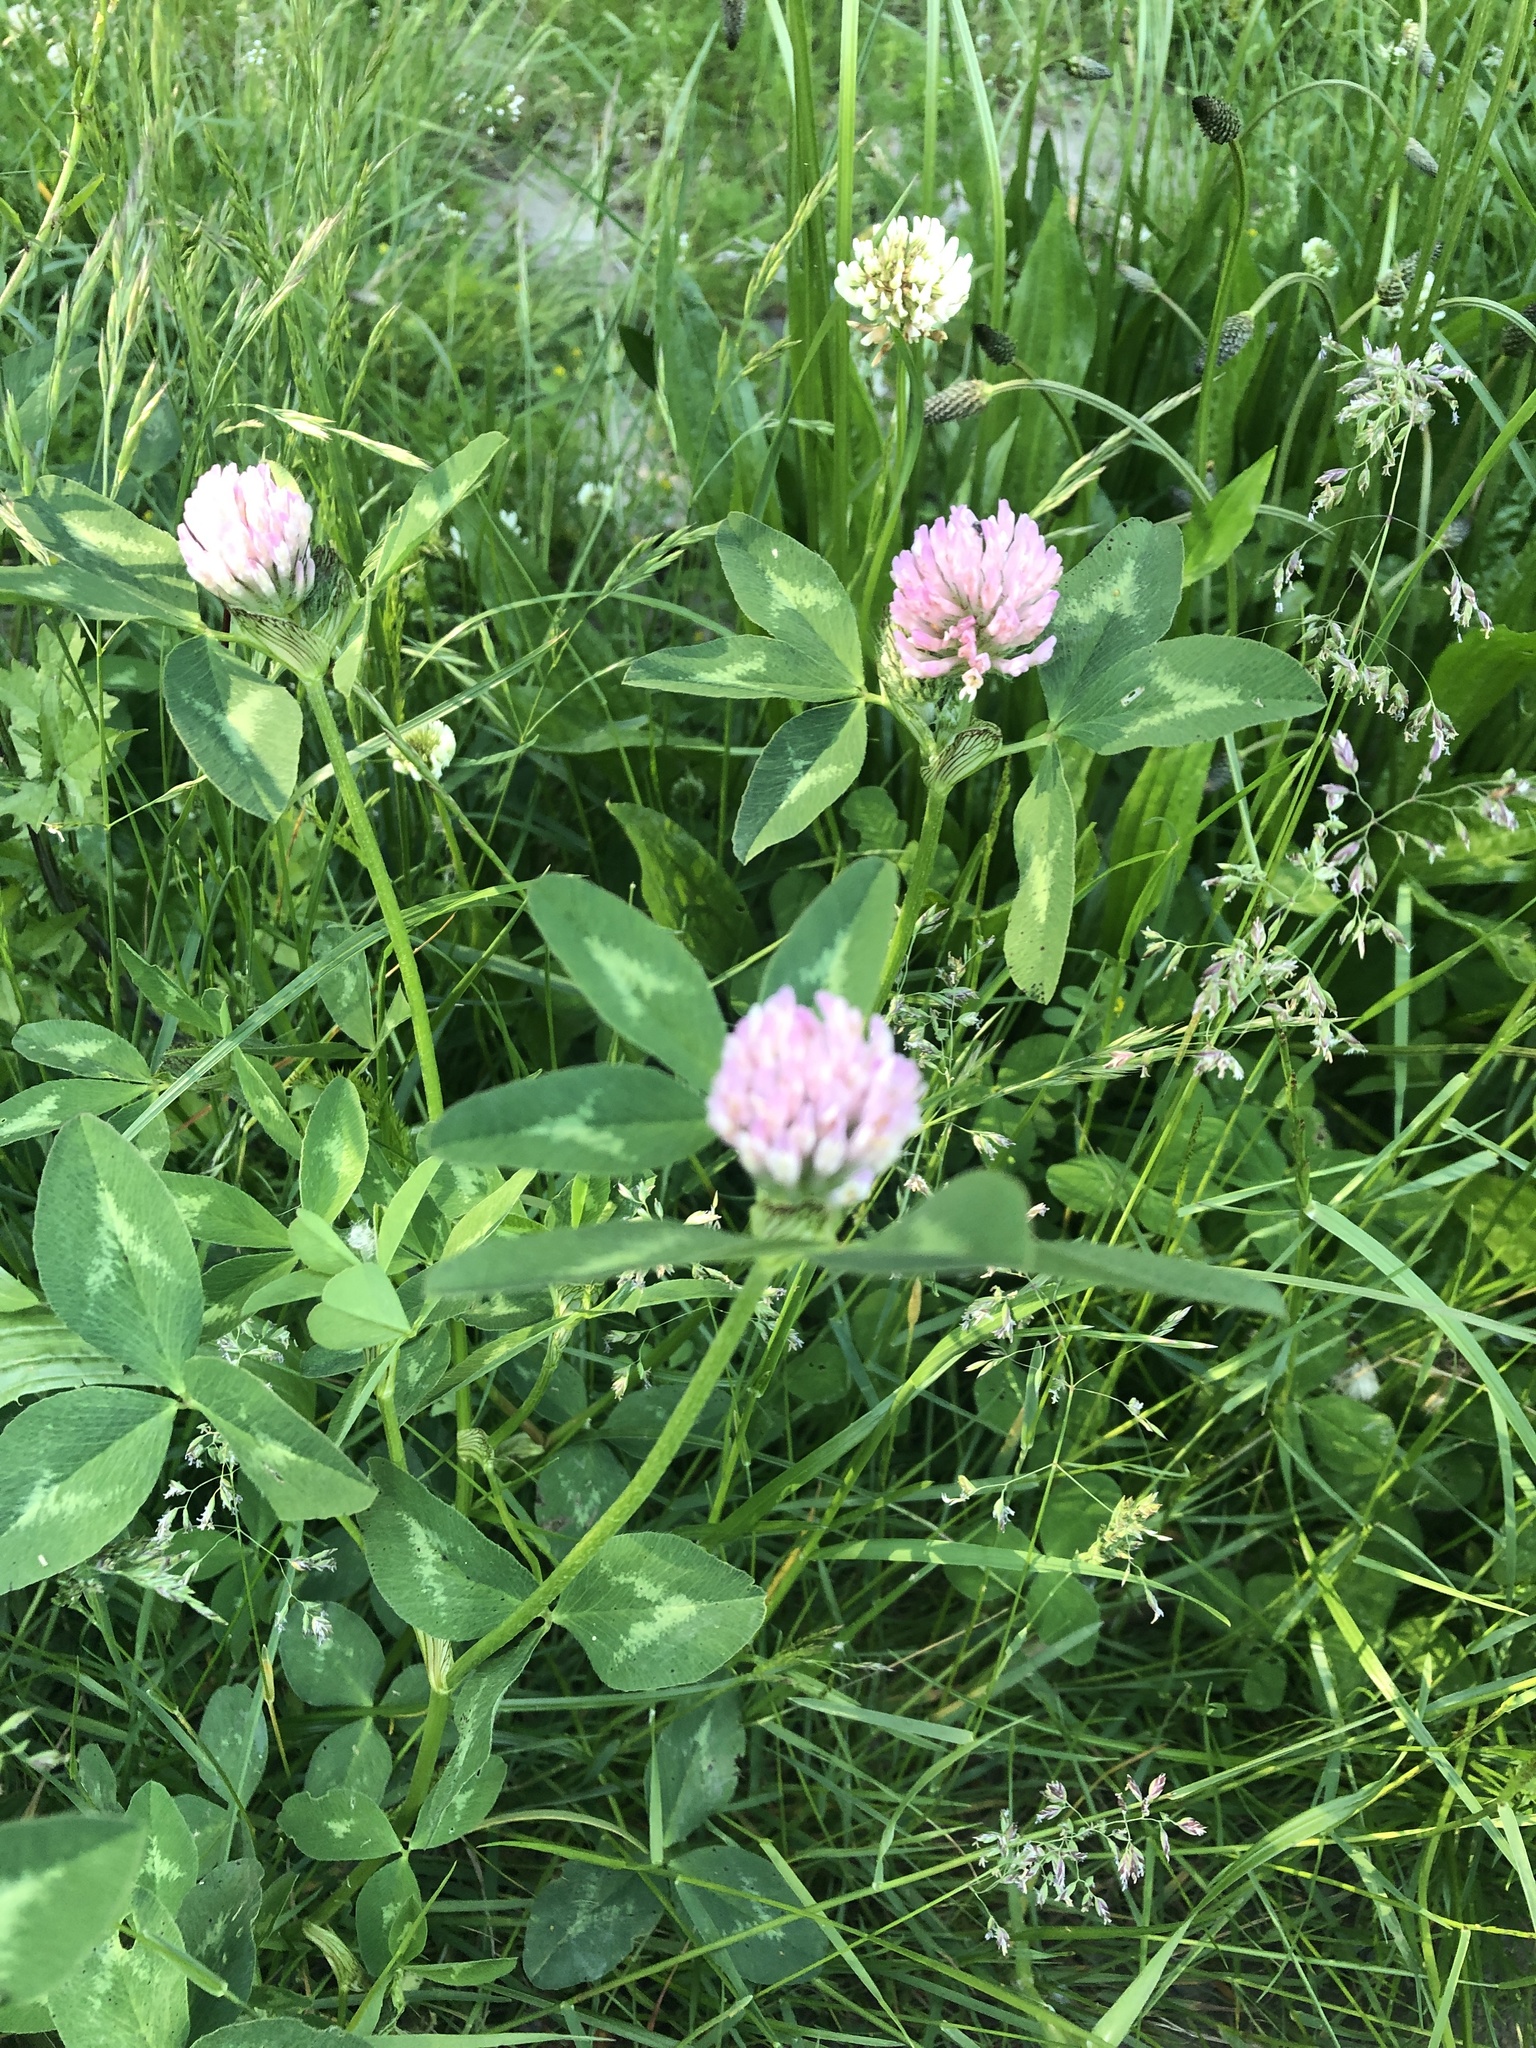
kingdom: Plantae
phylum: Tracheophyta
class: Magnoliopsida
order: Fabales
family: Fabaceae
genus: Trifolium
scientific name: Trifolium pratense
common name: Red clover
